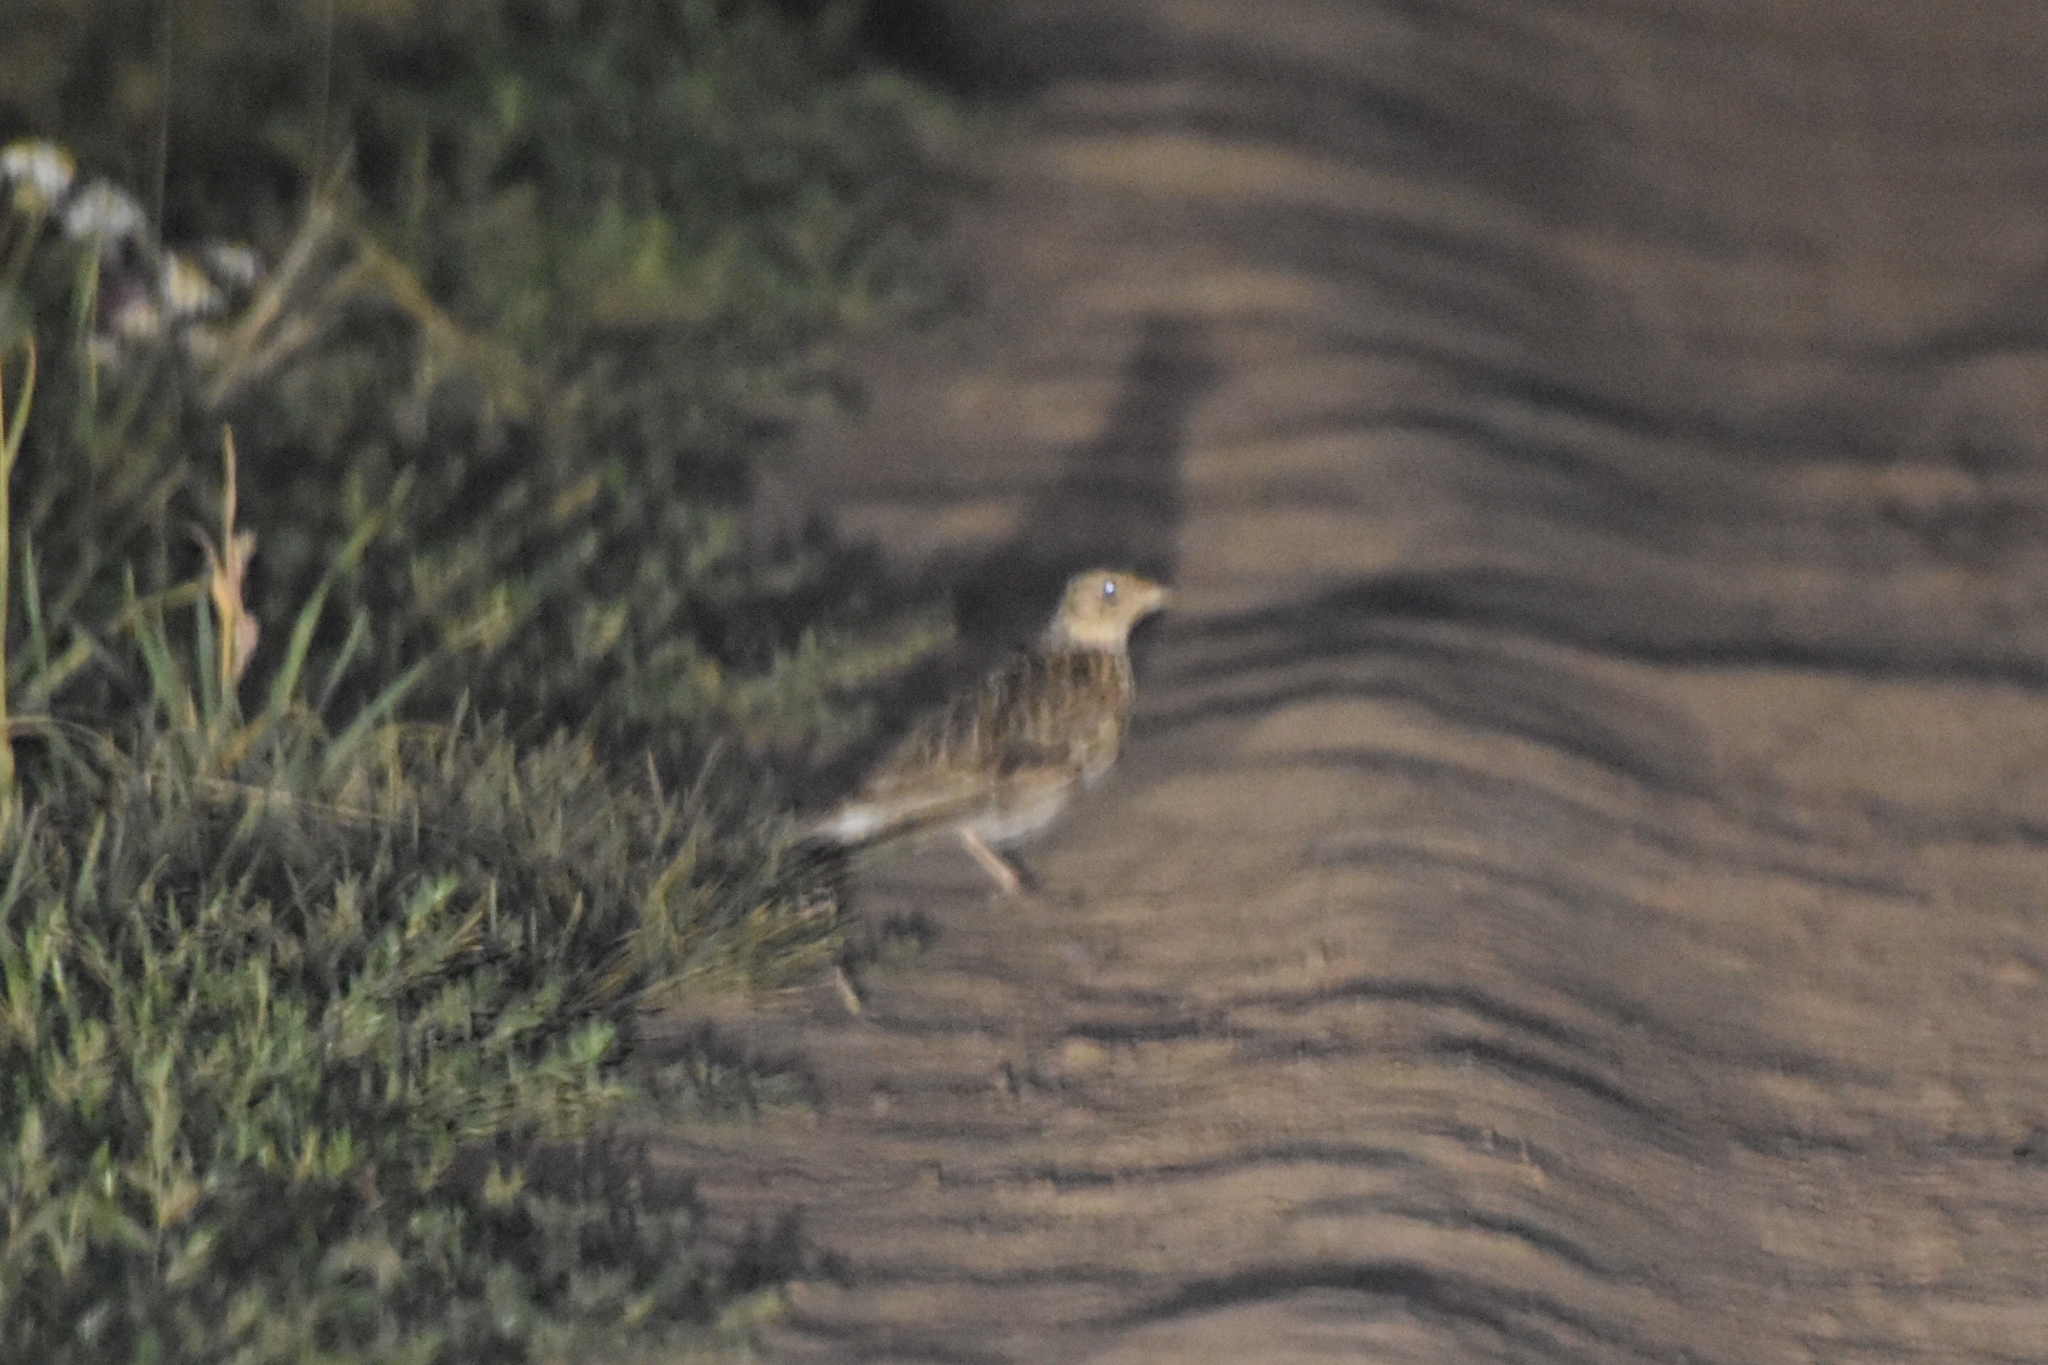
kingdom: Animalia
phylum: Chordata
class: Aves
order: Passeriformes
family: Alaudidae
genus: Alauda
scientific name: Alauda arvensis
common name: Eurasian skylark
